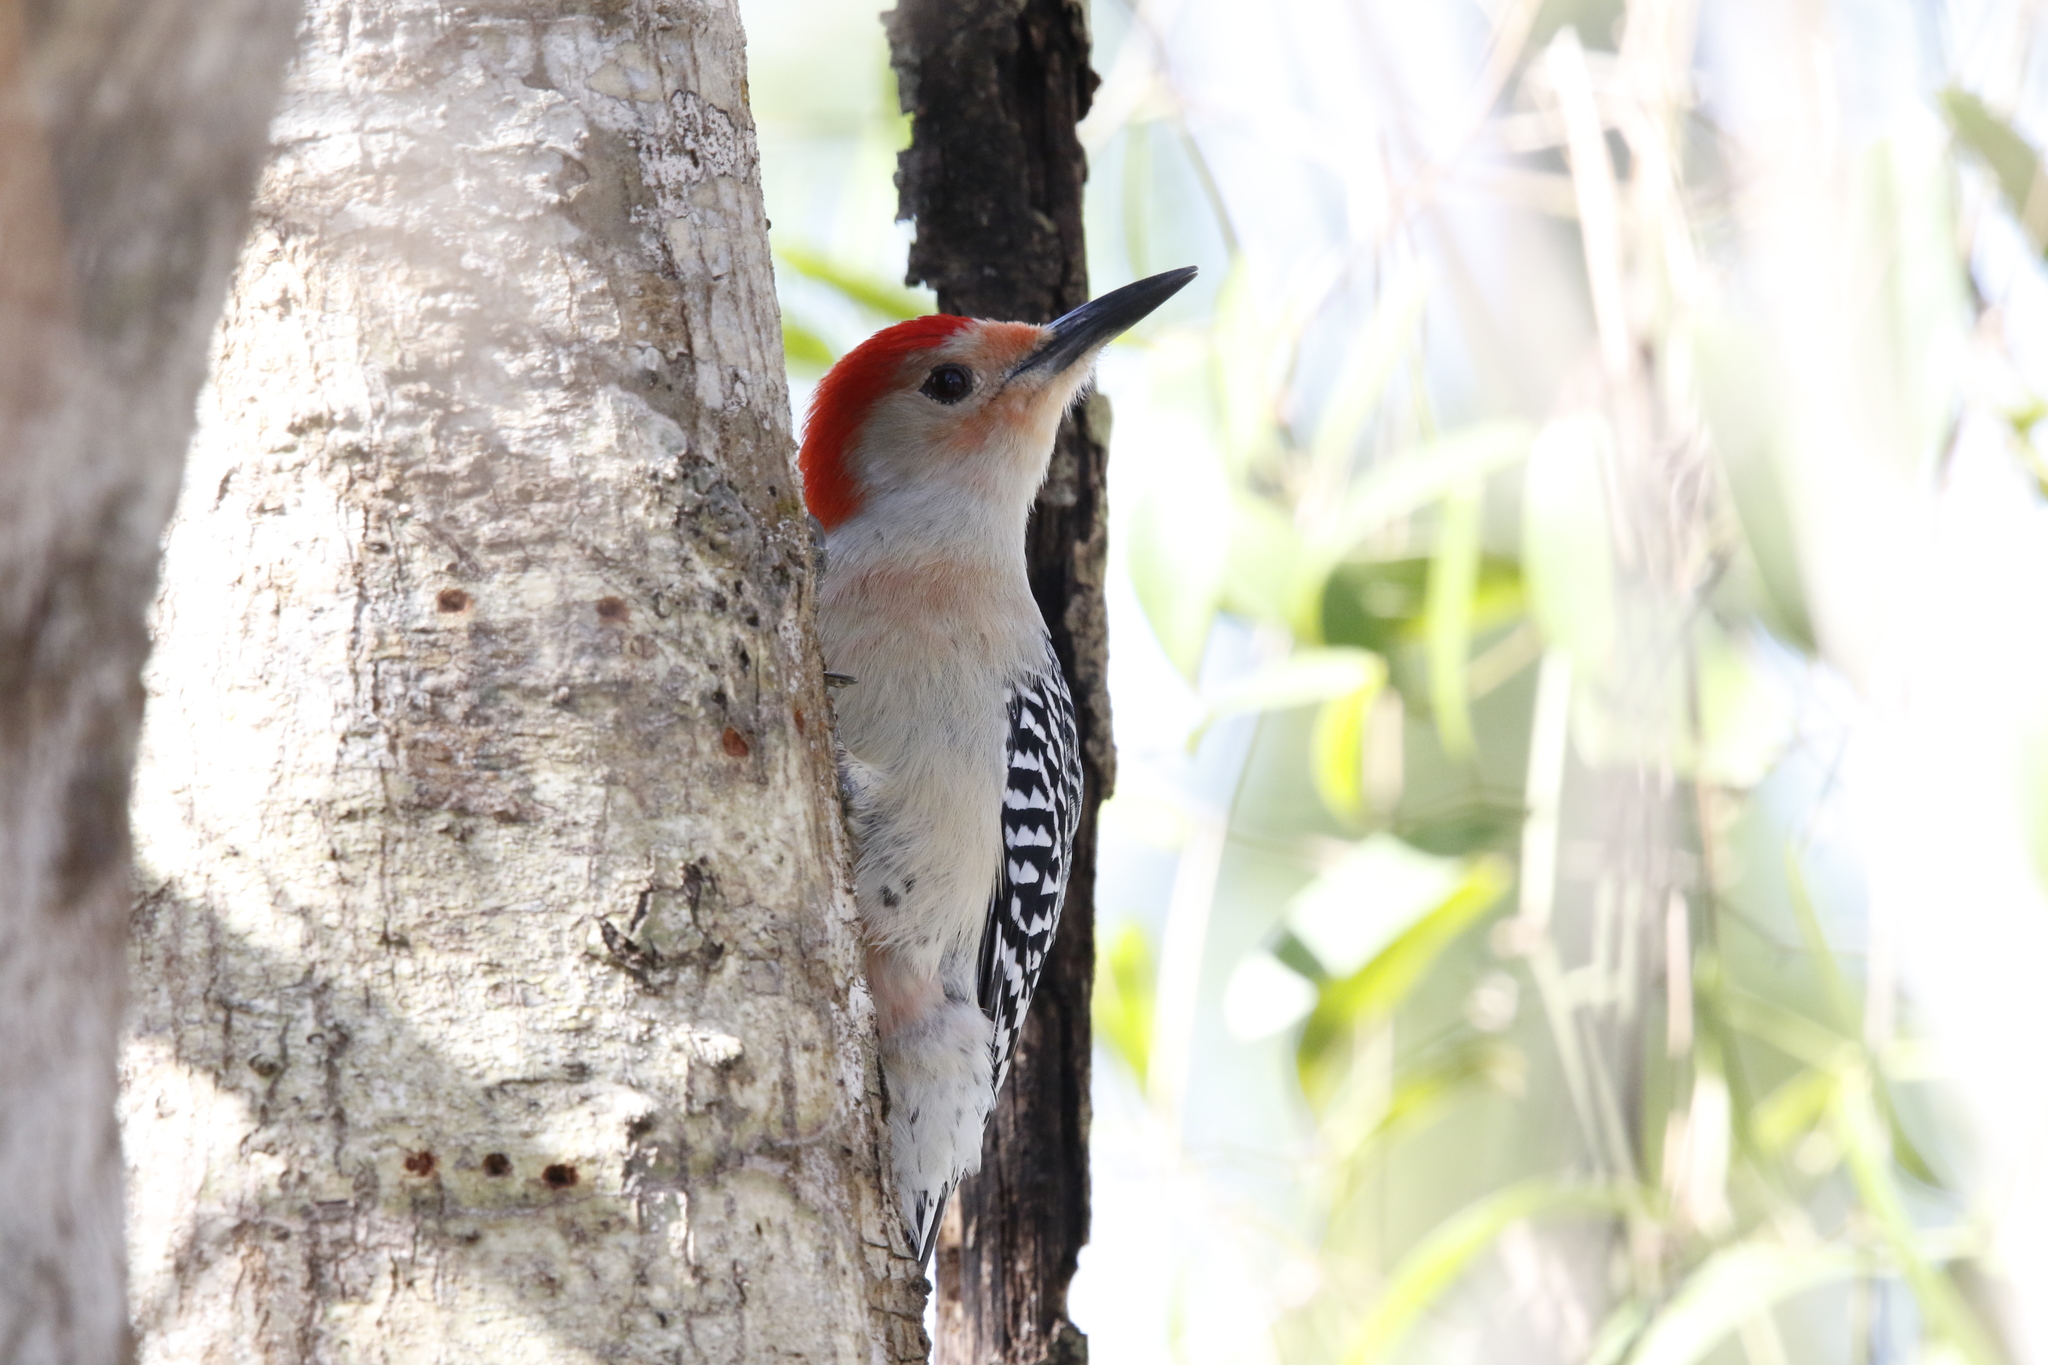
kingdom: Animalia
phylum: Chordata
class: Aves
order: Piciformes
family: Picidae
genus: Melanerpes
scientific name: Melanerpes carolinus
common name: Red-bellied woodpecker
